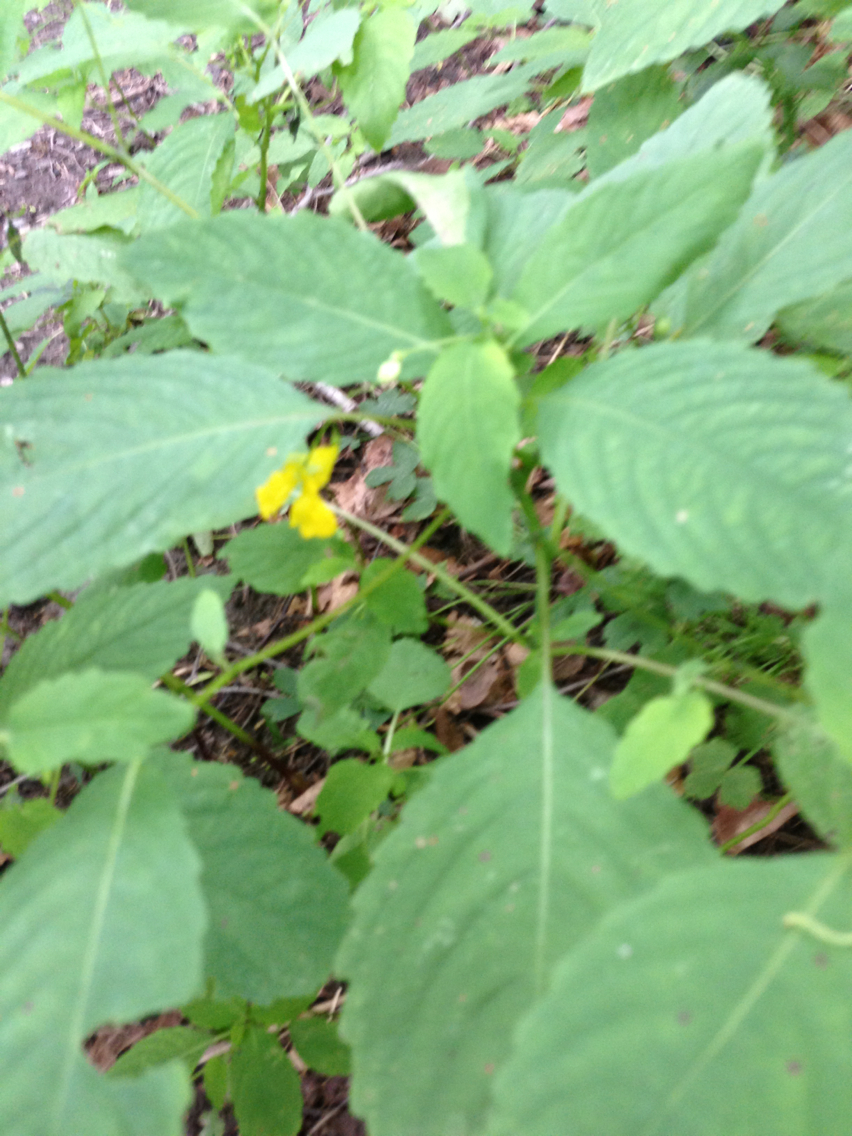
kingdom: Plantae
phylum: Tracheophyta
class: Magnoliopsida
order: Ericales
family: Balsaminaceae
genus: Impatiens
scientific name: Impatiens pallida
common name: Pale snapweed
